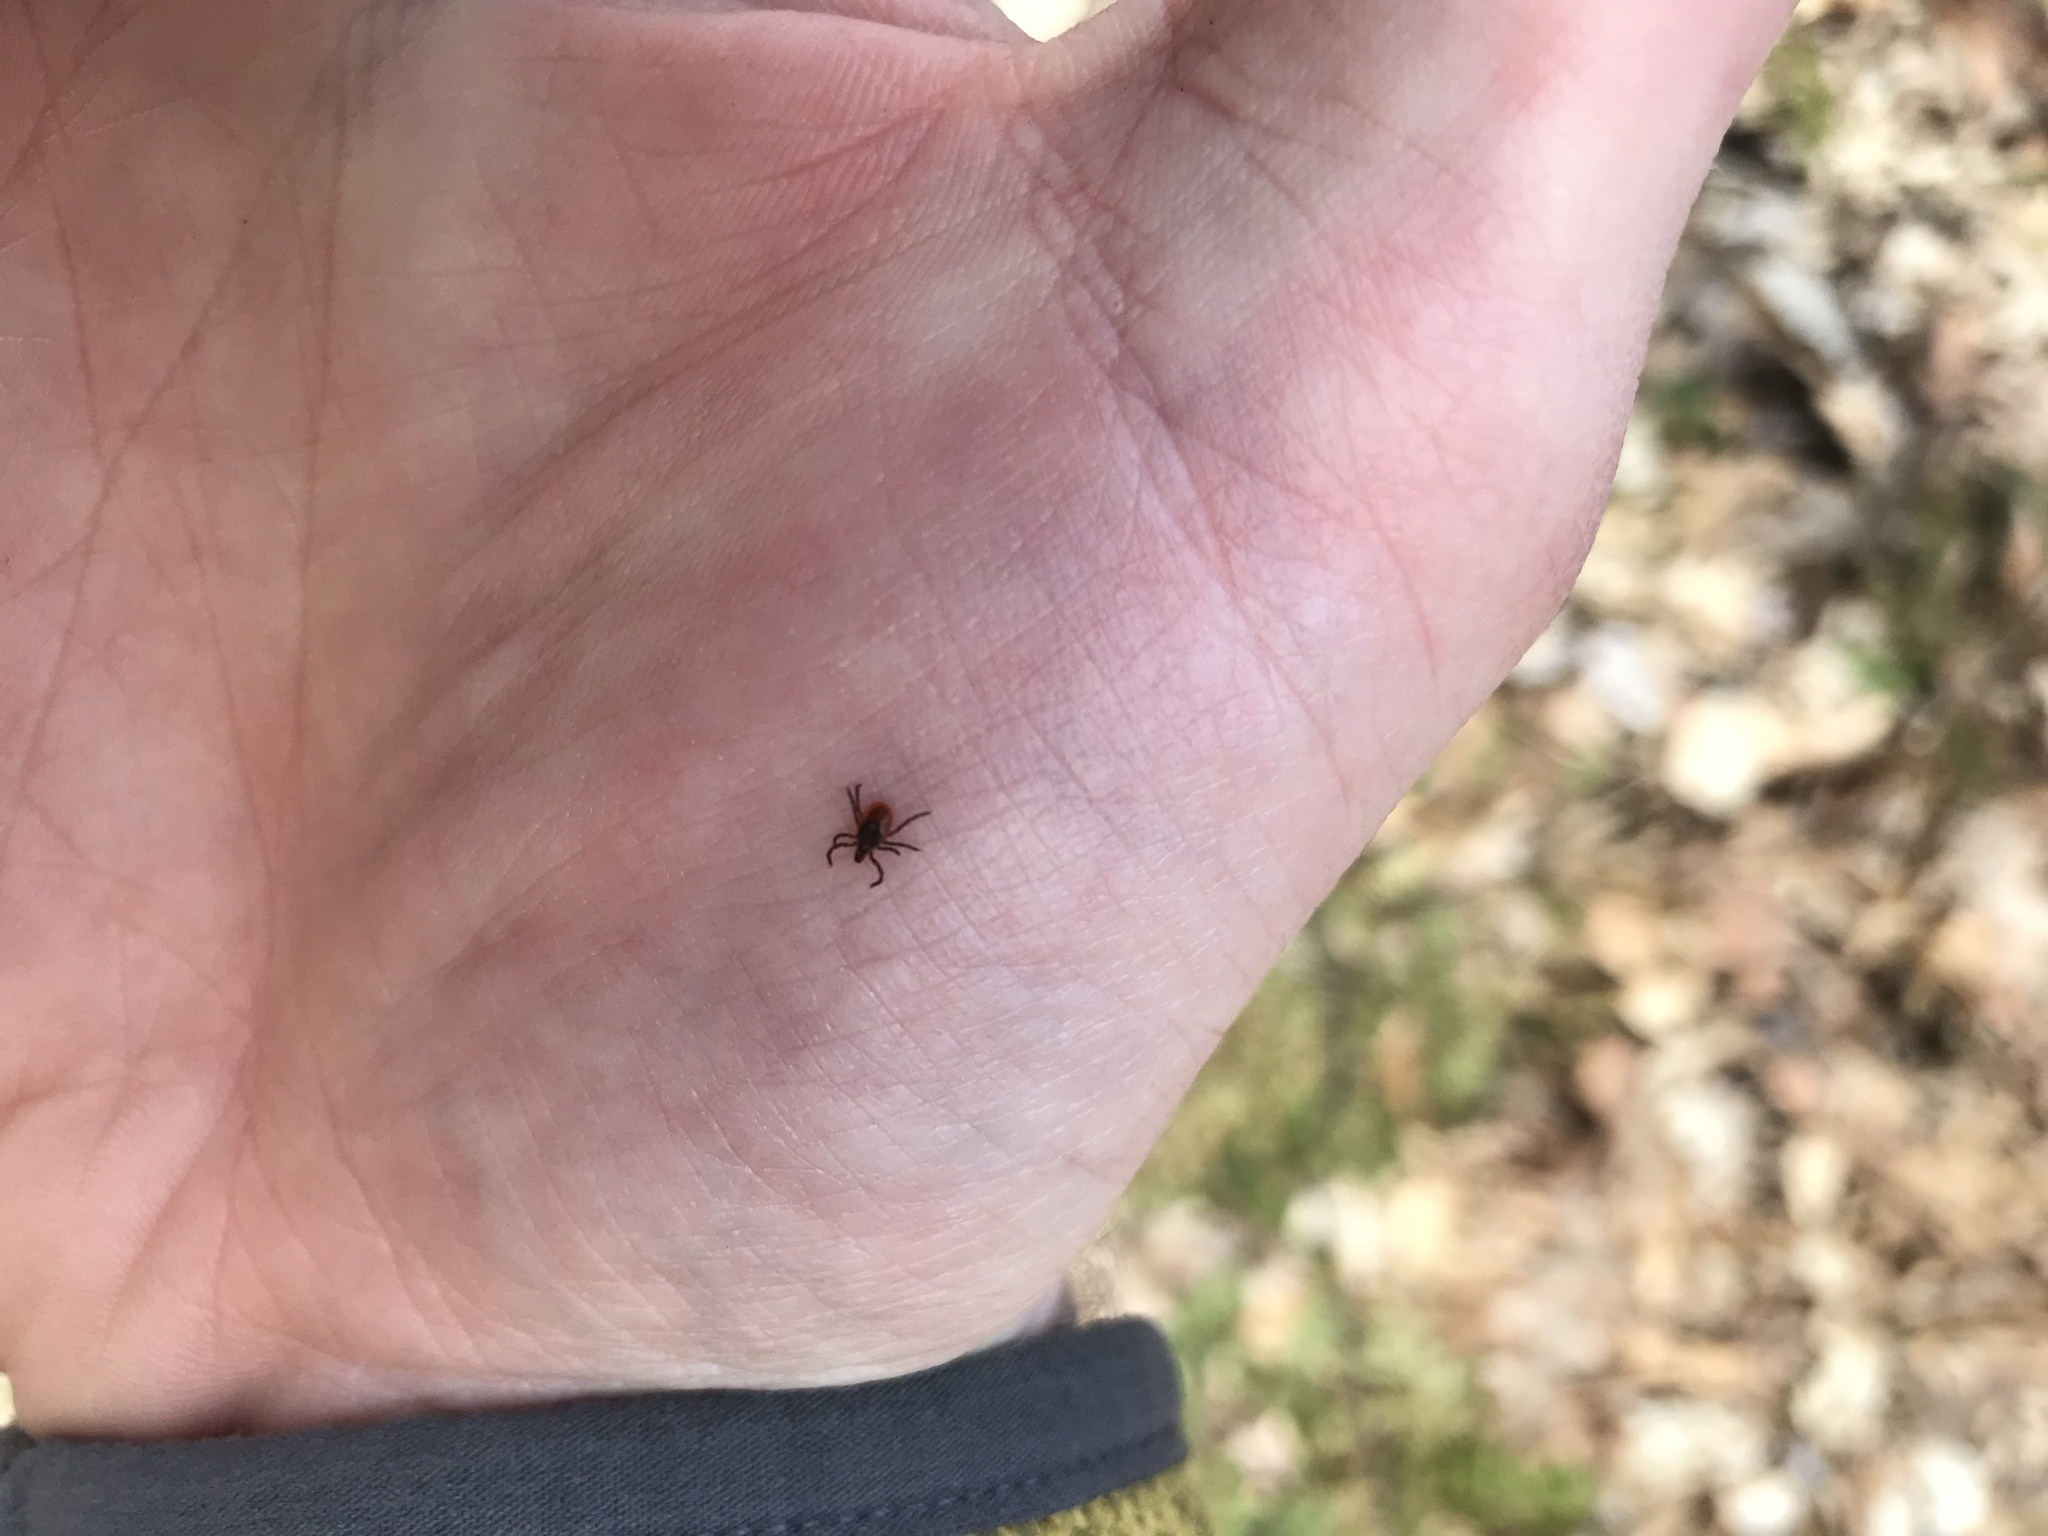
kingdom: Animalia
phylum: Arthropoda
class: Arachnida
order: Ixodida
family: Ixodidae
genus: Ixodes
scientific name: Ixodes scapularis
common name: Black legged tick
